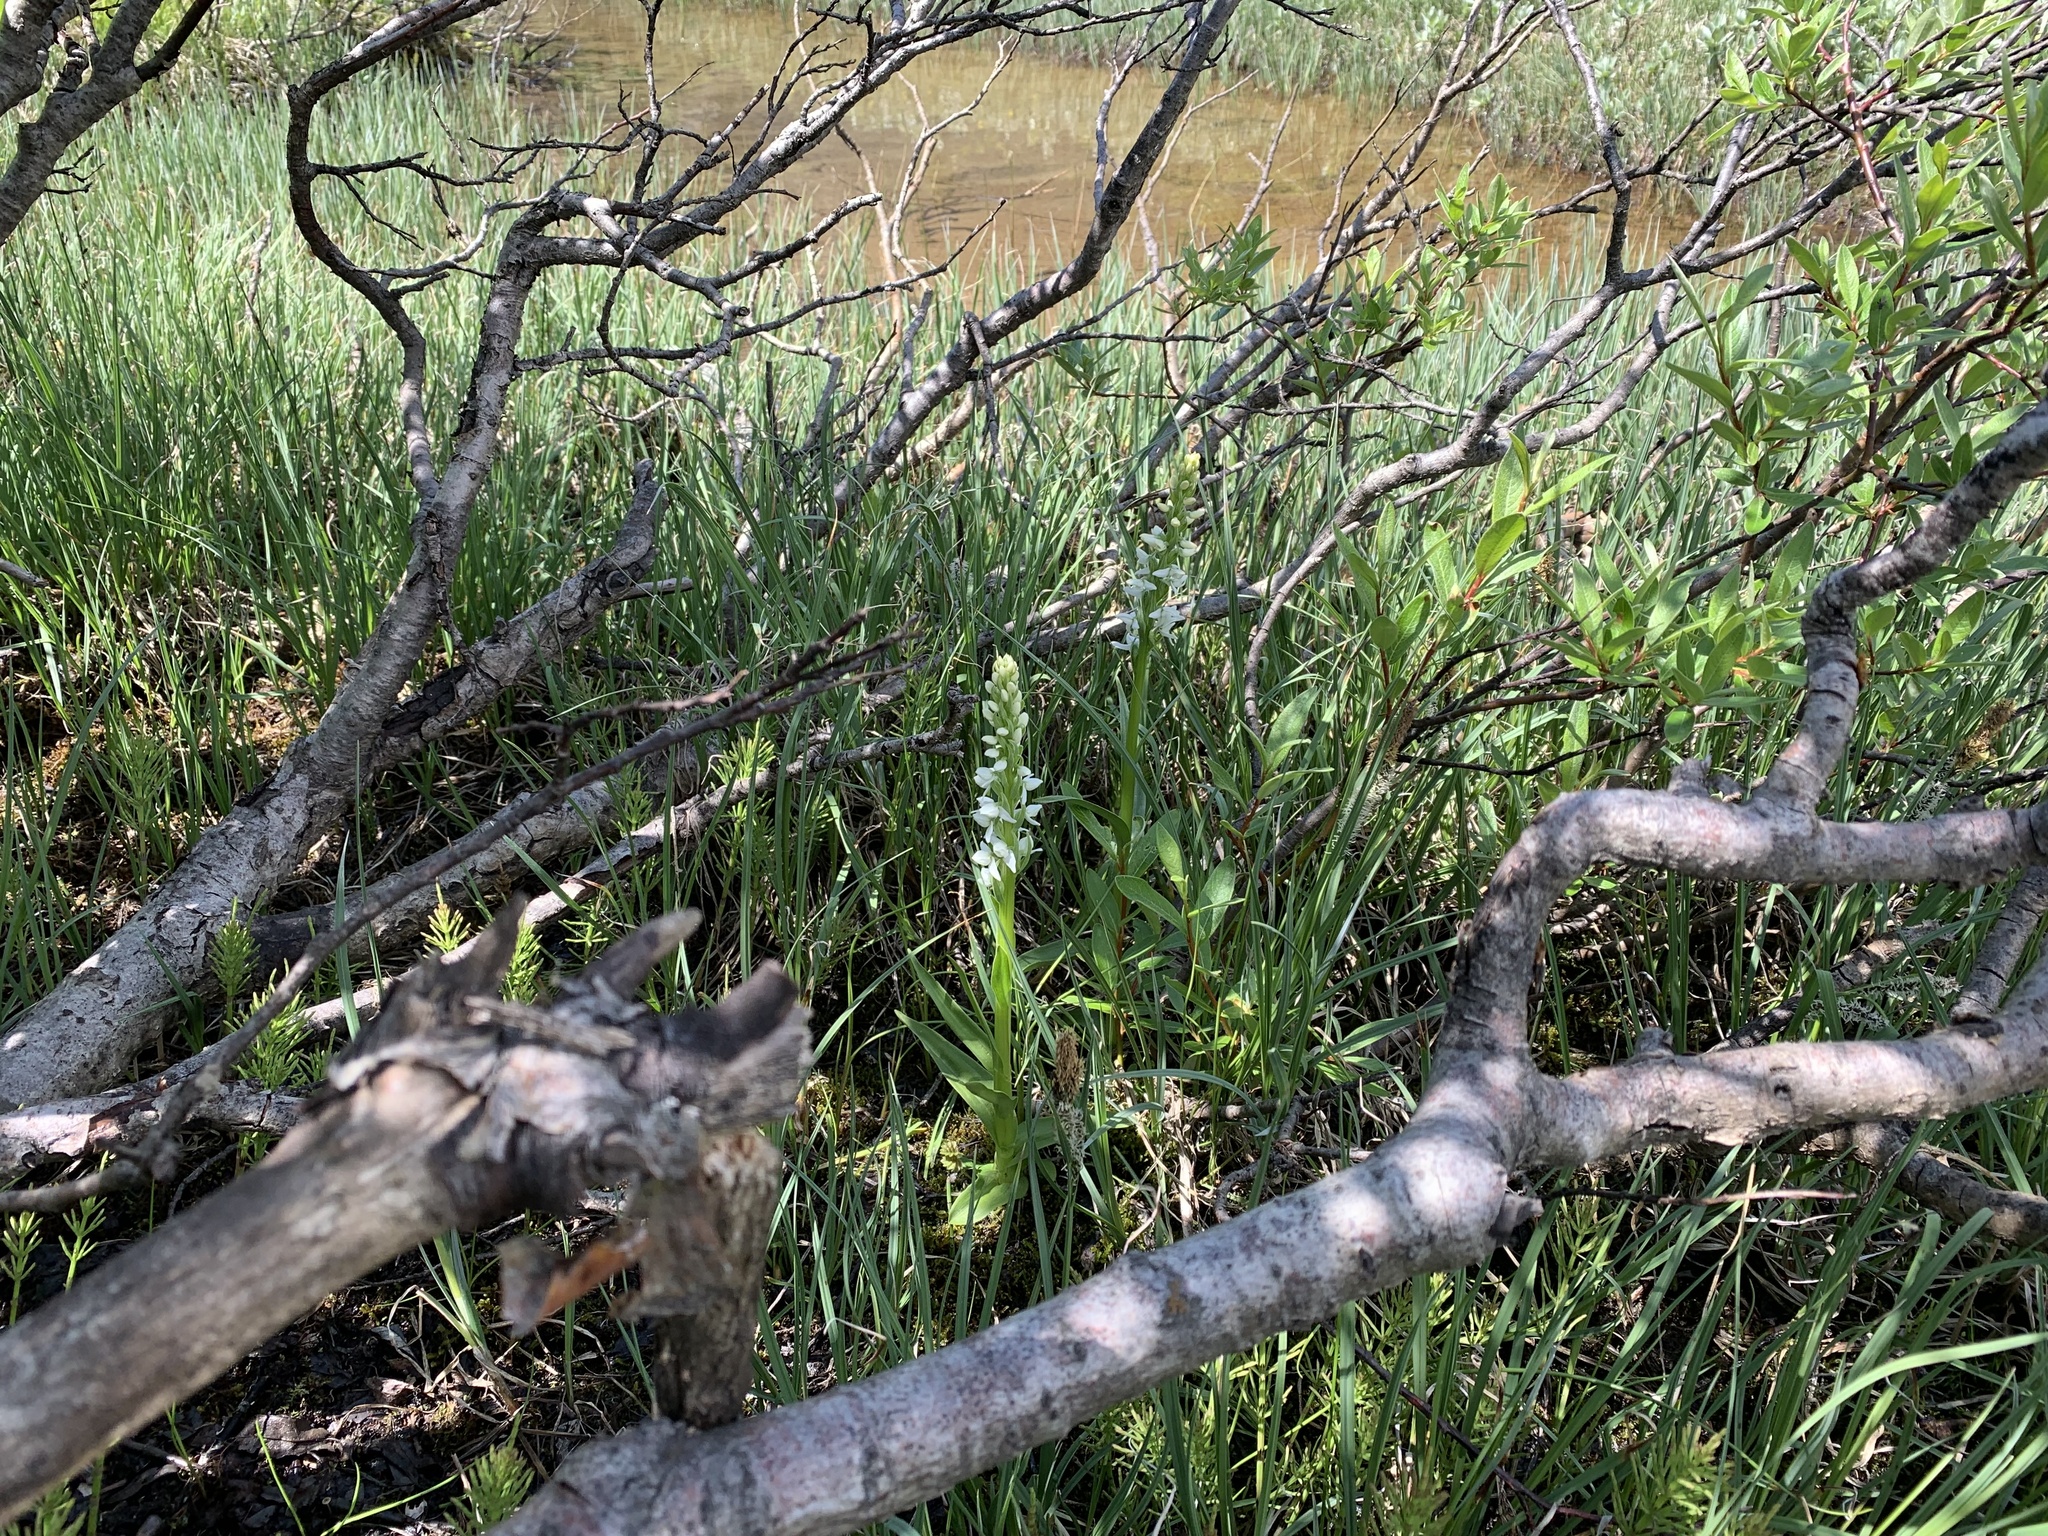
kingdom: Plantae
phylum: Tracheophyta
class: Liliopsida
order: Asparagales
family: Orchidaceae
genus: Platanthera
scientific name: Platanthera dilatata
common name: Bog candles
